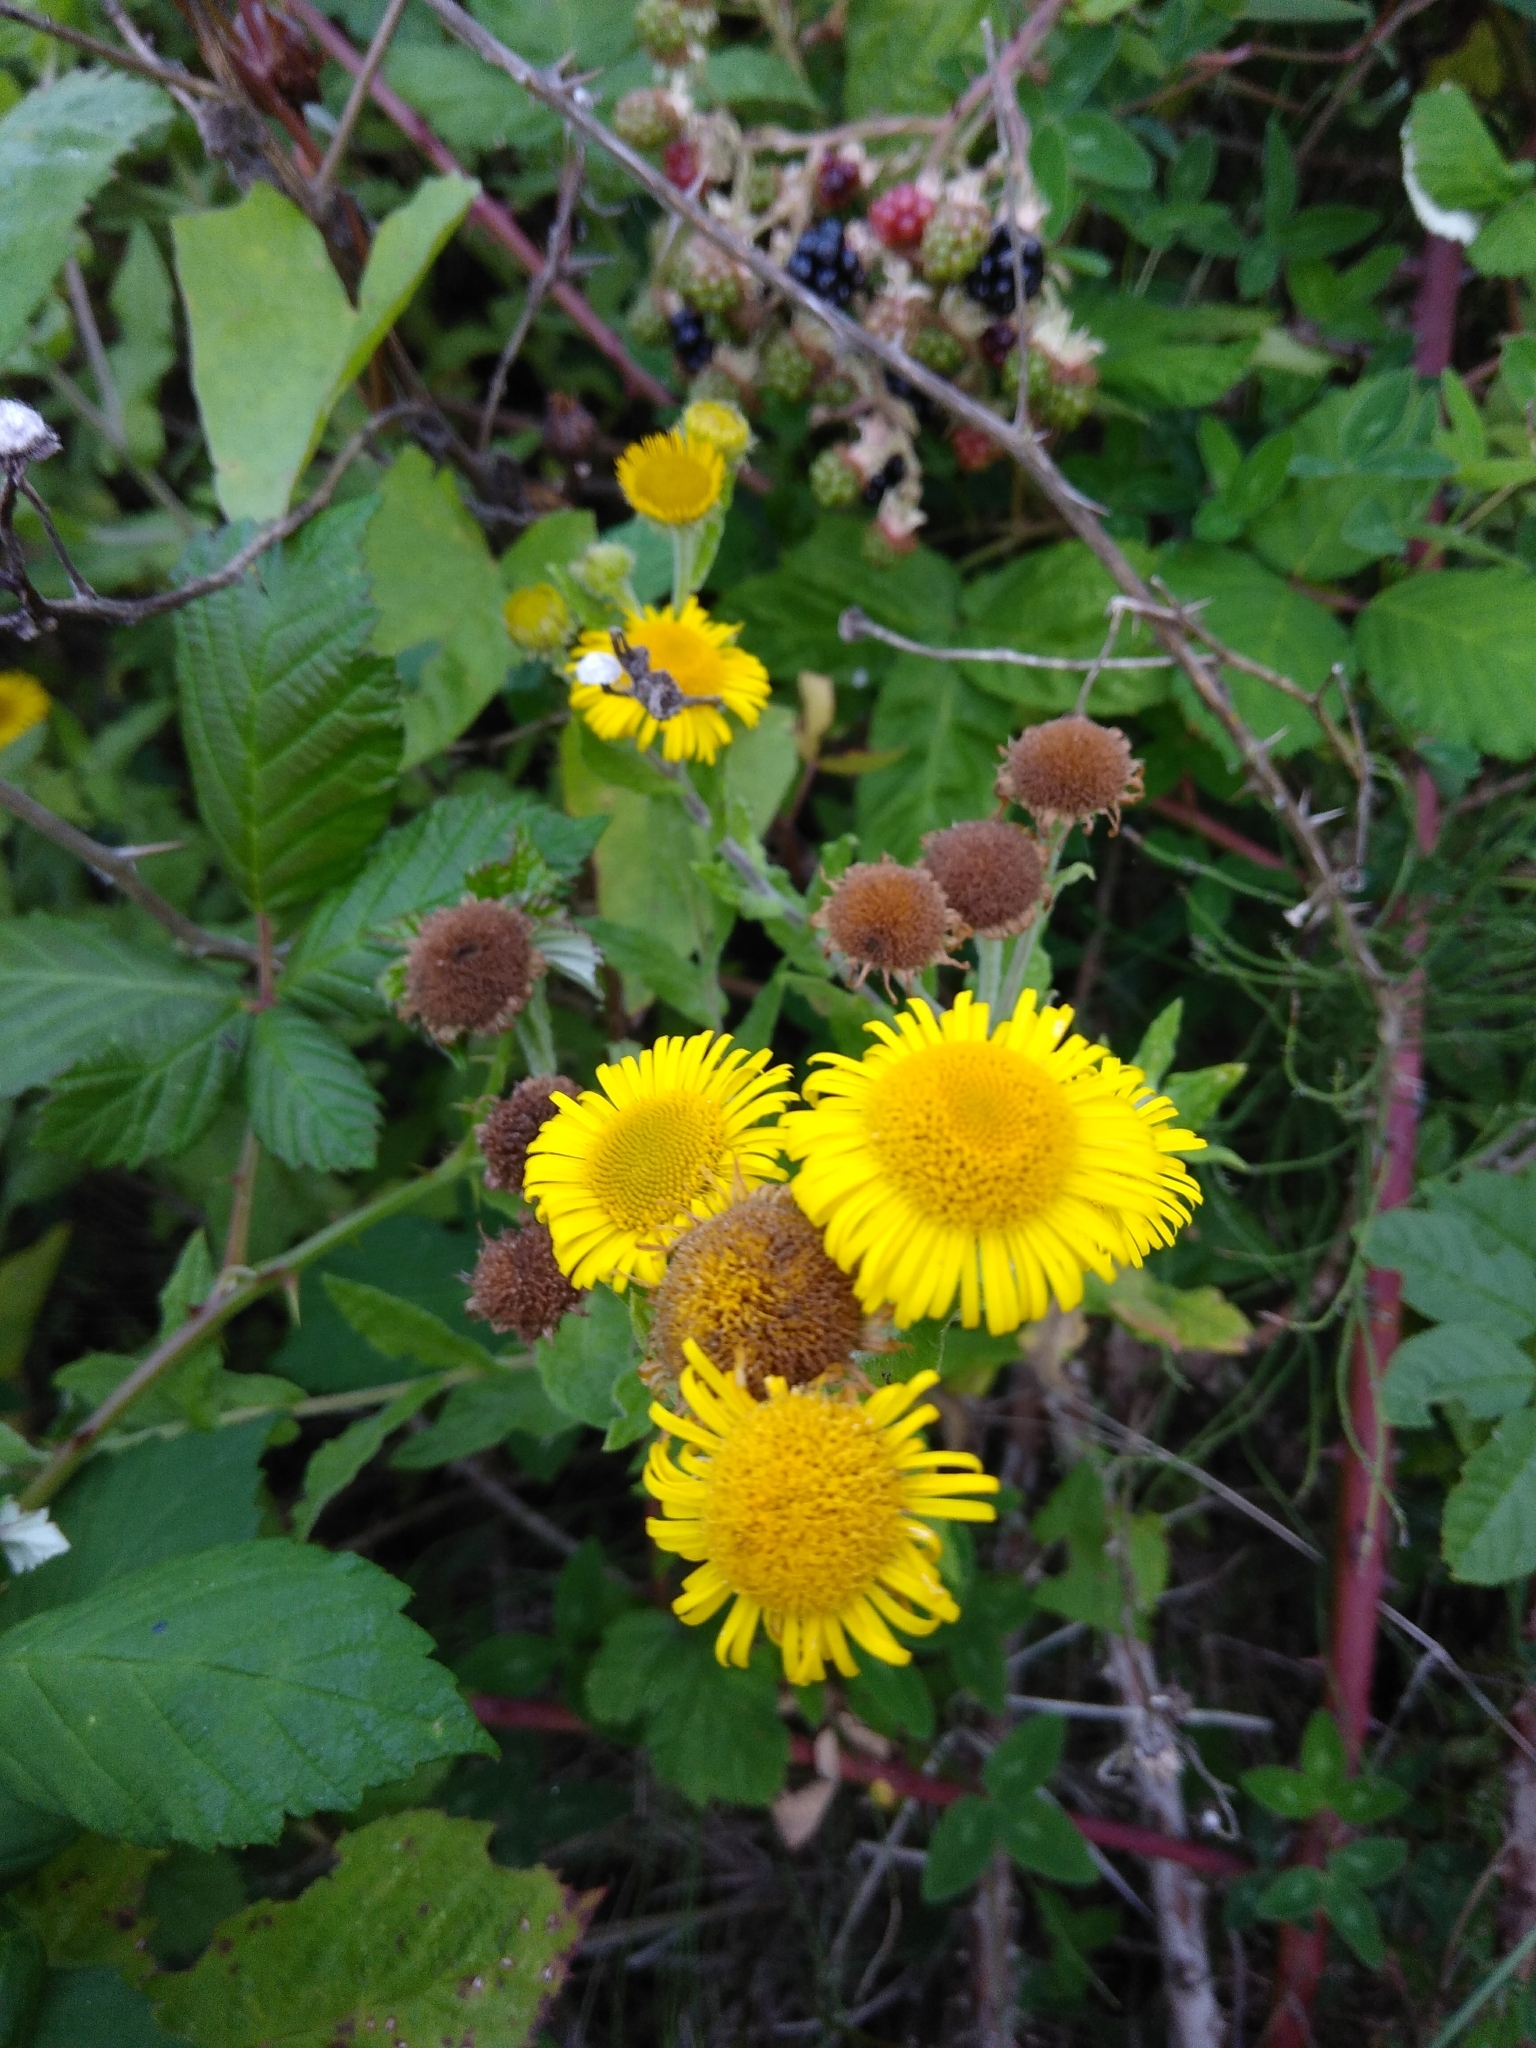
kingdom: Plantae
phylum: Tracheophyta
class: Magnoliopsida
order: Asterales
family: Asteraceae
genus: Pulicaria
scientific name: Pulicaria dysenterica
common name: Common fleabane
